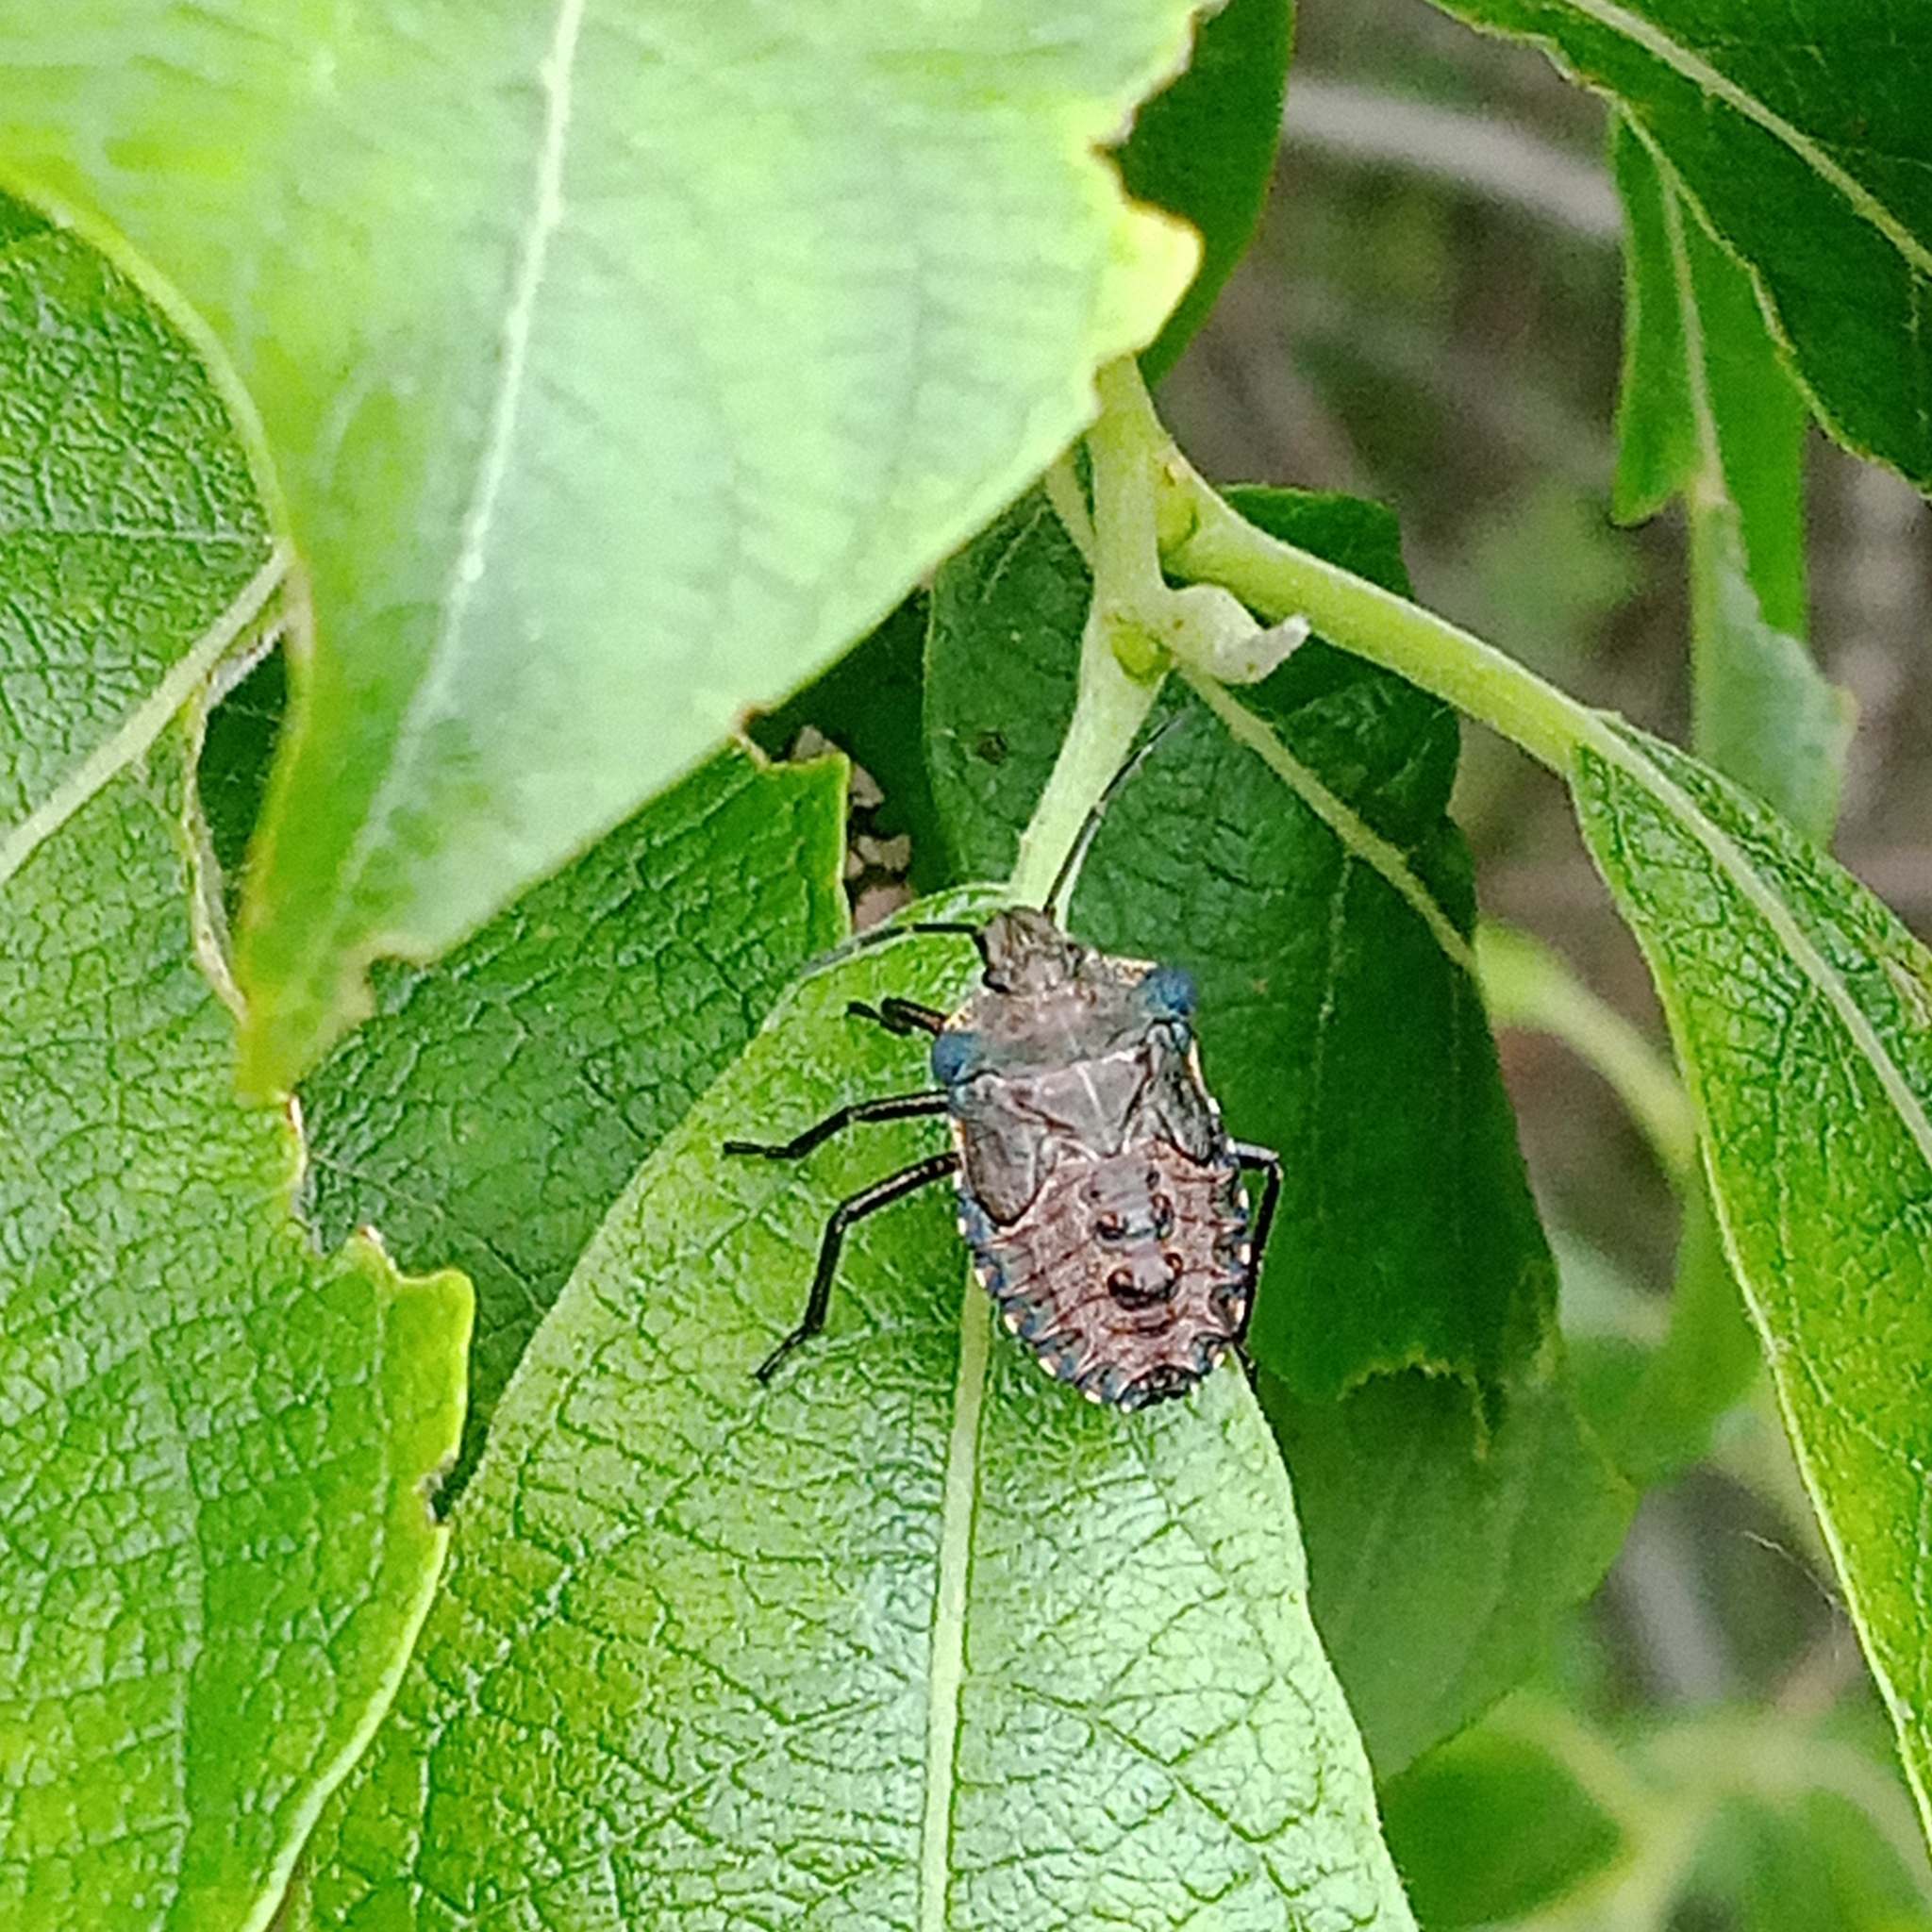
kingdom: Animalia
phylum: Arthropoda
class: Insecta
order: Hemiptera
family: Pentatomidae
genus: Pentatoma
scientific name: Pentatoma rufipes
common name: Forest bug
